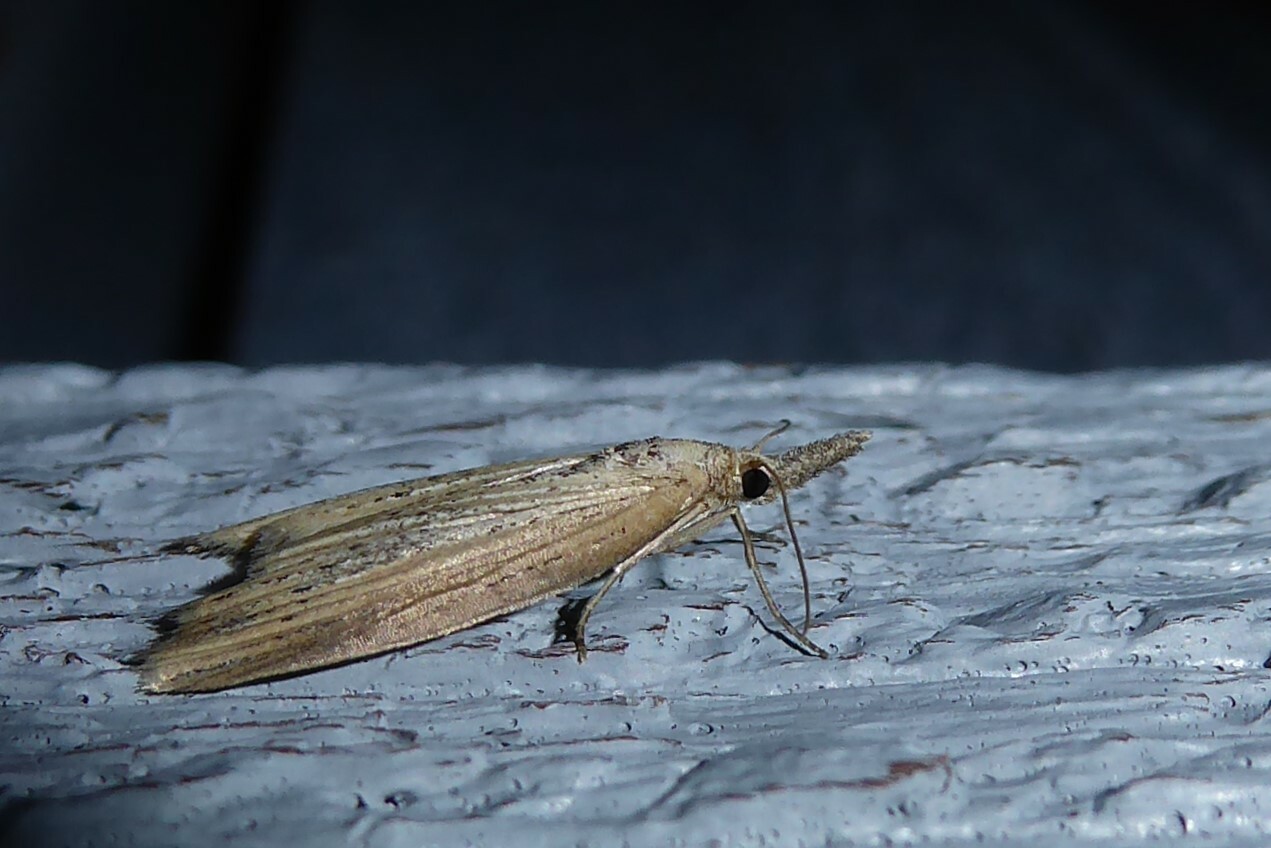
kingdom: Animalia
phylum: Arthropoda
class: Insecta
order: Lepidoptera
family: Geometridae
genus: Microdes
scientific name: Microdes epicryptis
